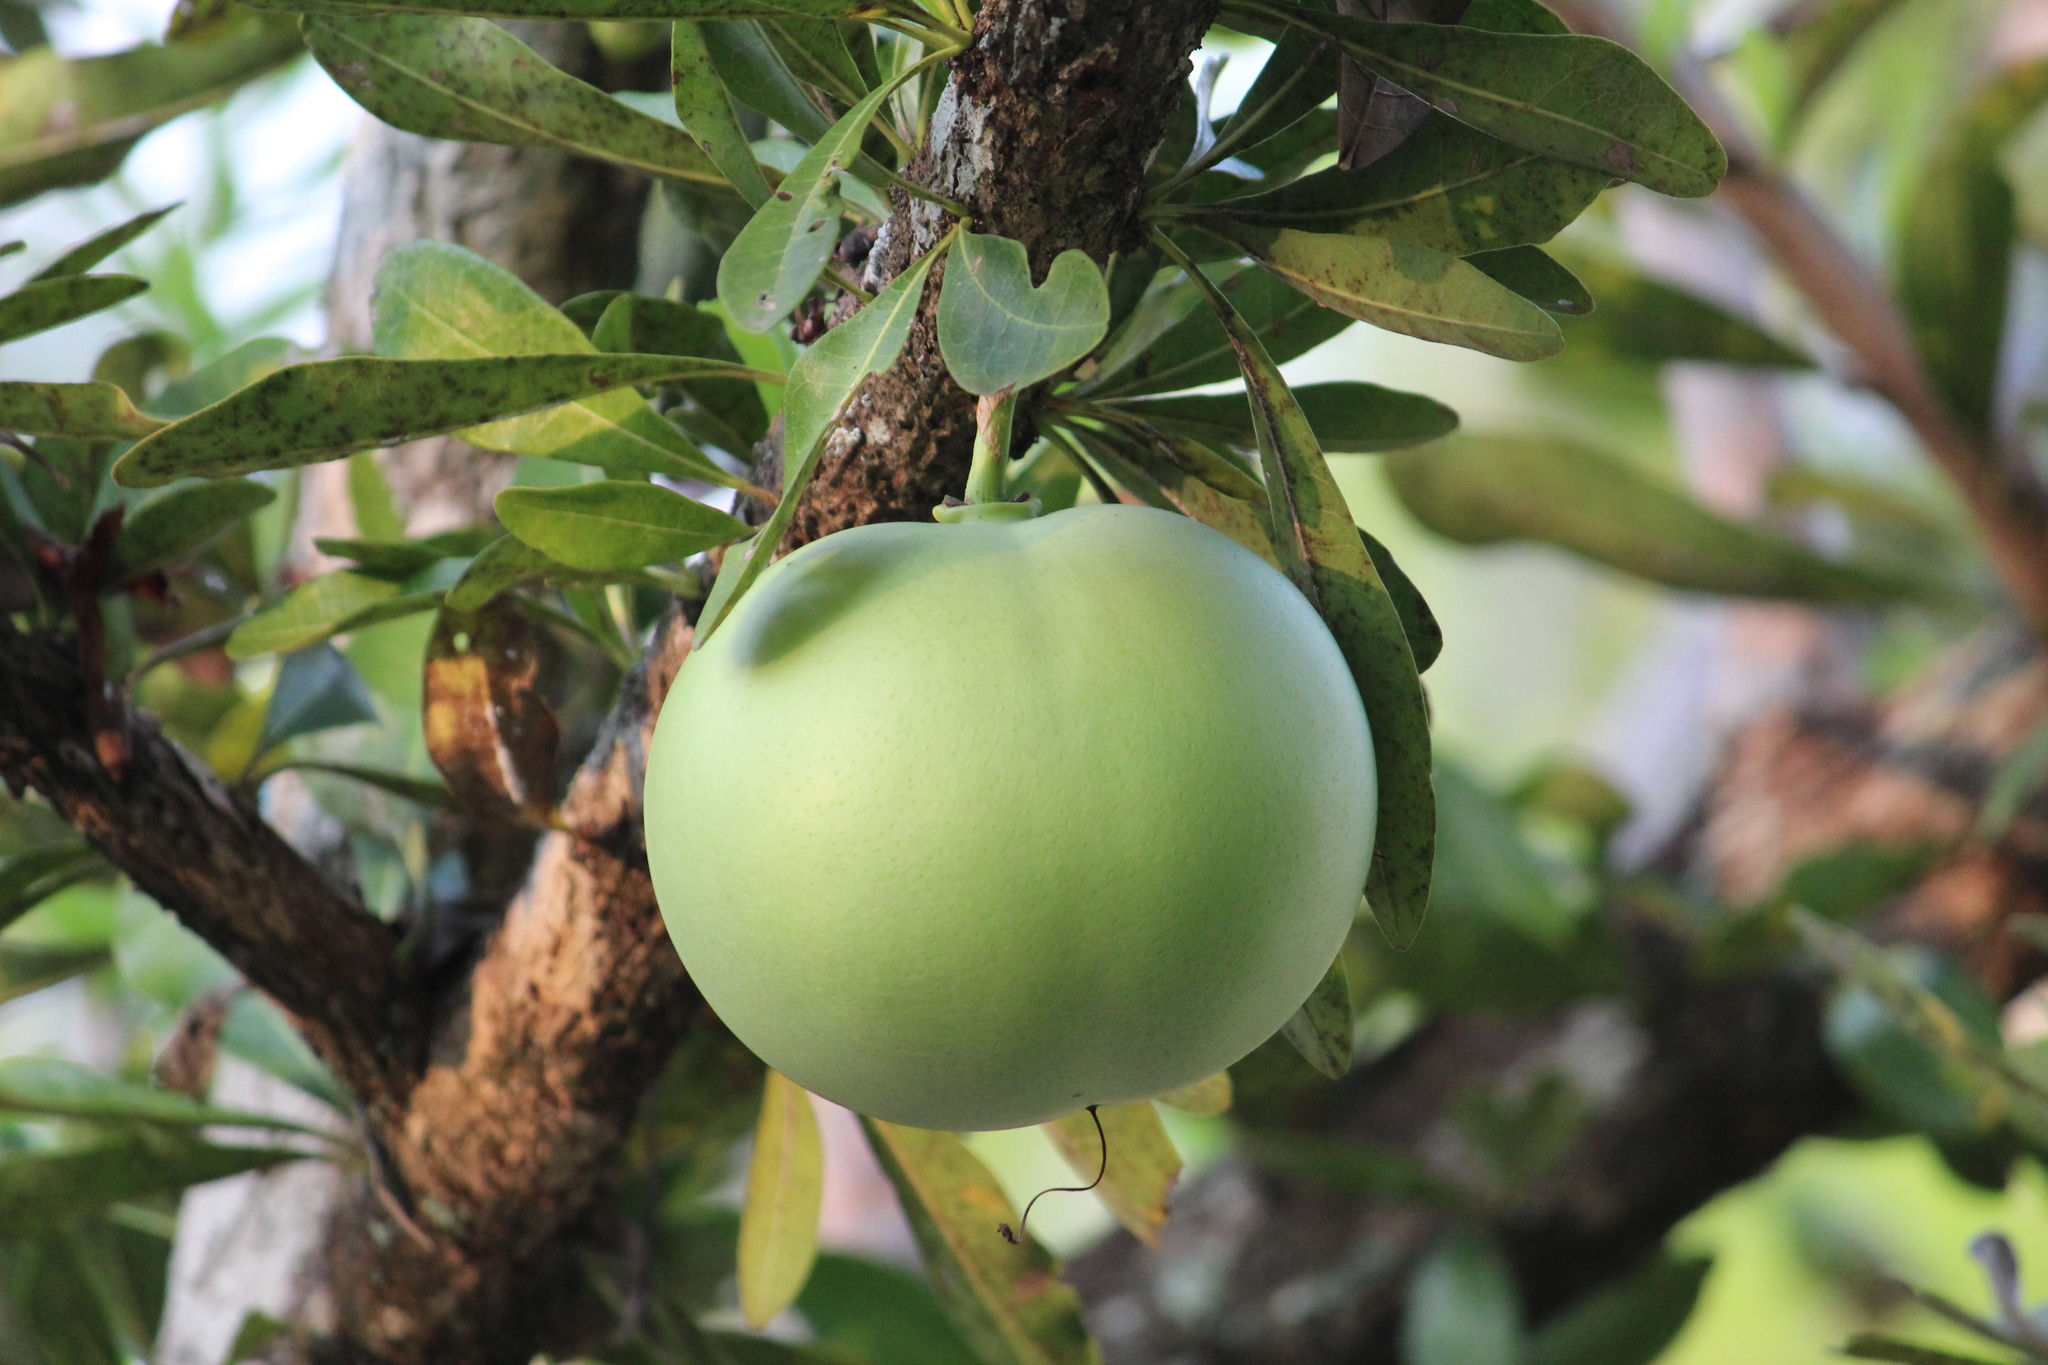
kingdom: Plantae
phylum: Tracheophyta
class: Magnoliopsida
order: Lamiales
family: Bignoniaceae
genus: Crescentia
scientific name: Crescentia cujete
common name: Calabash
